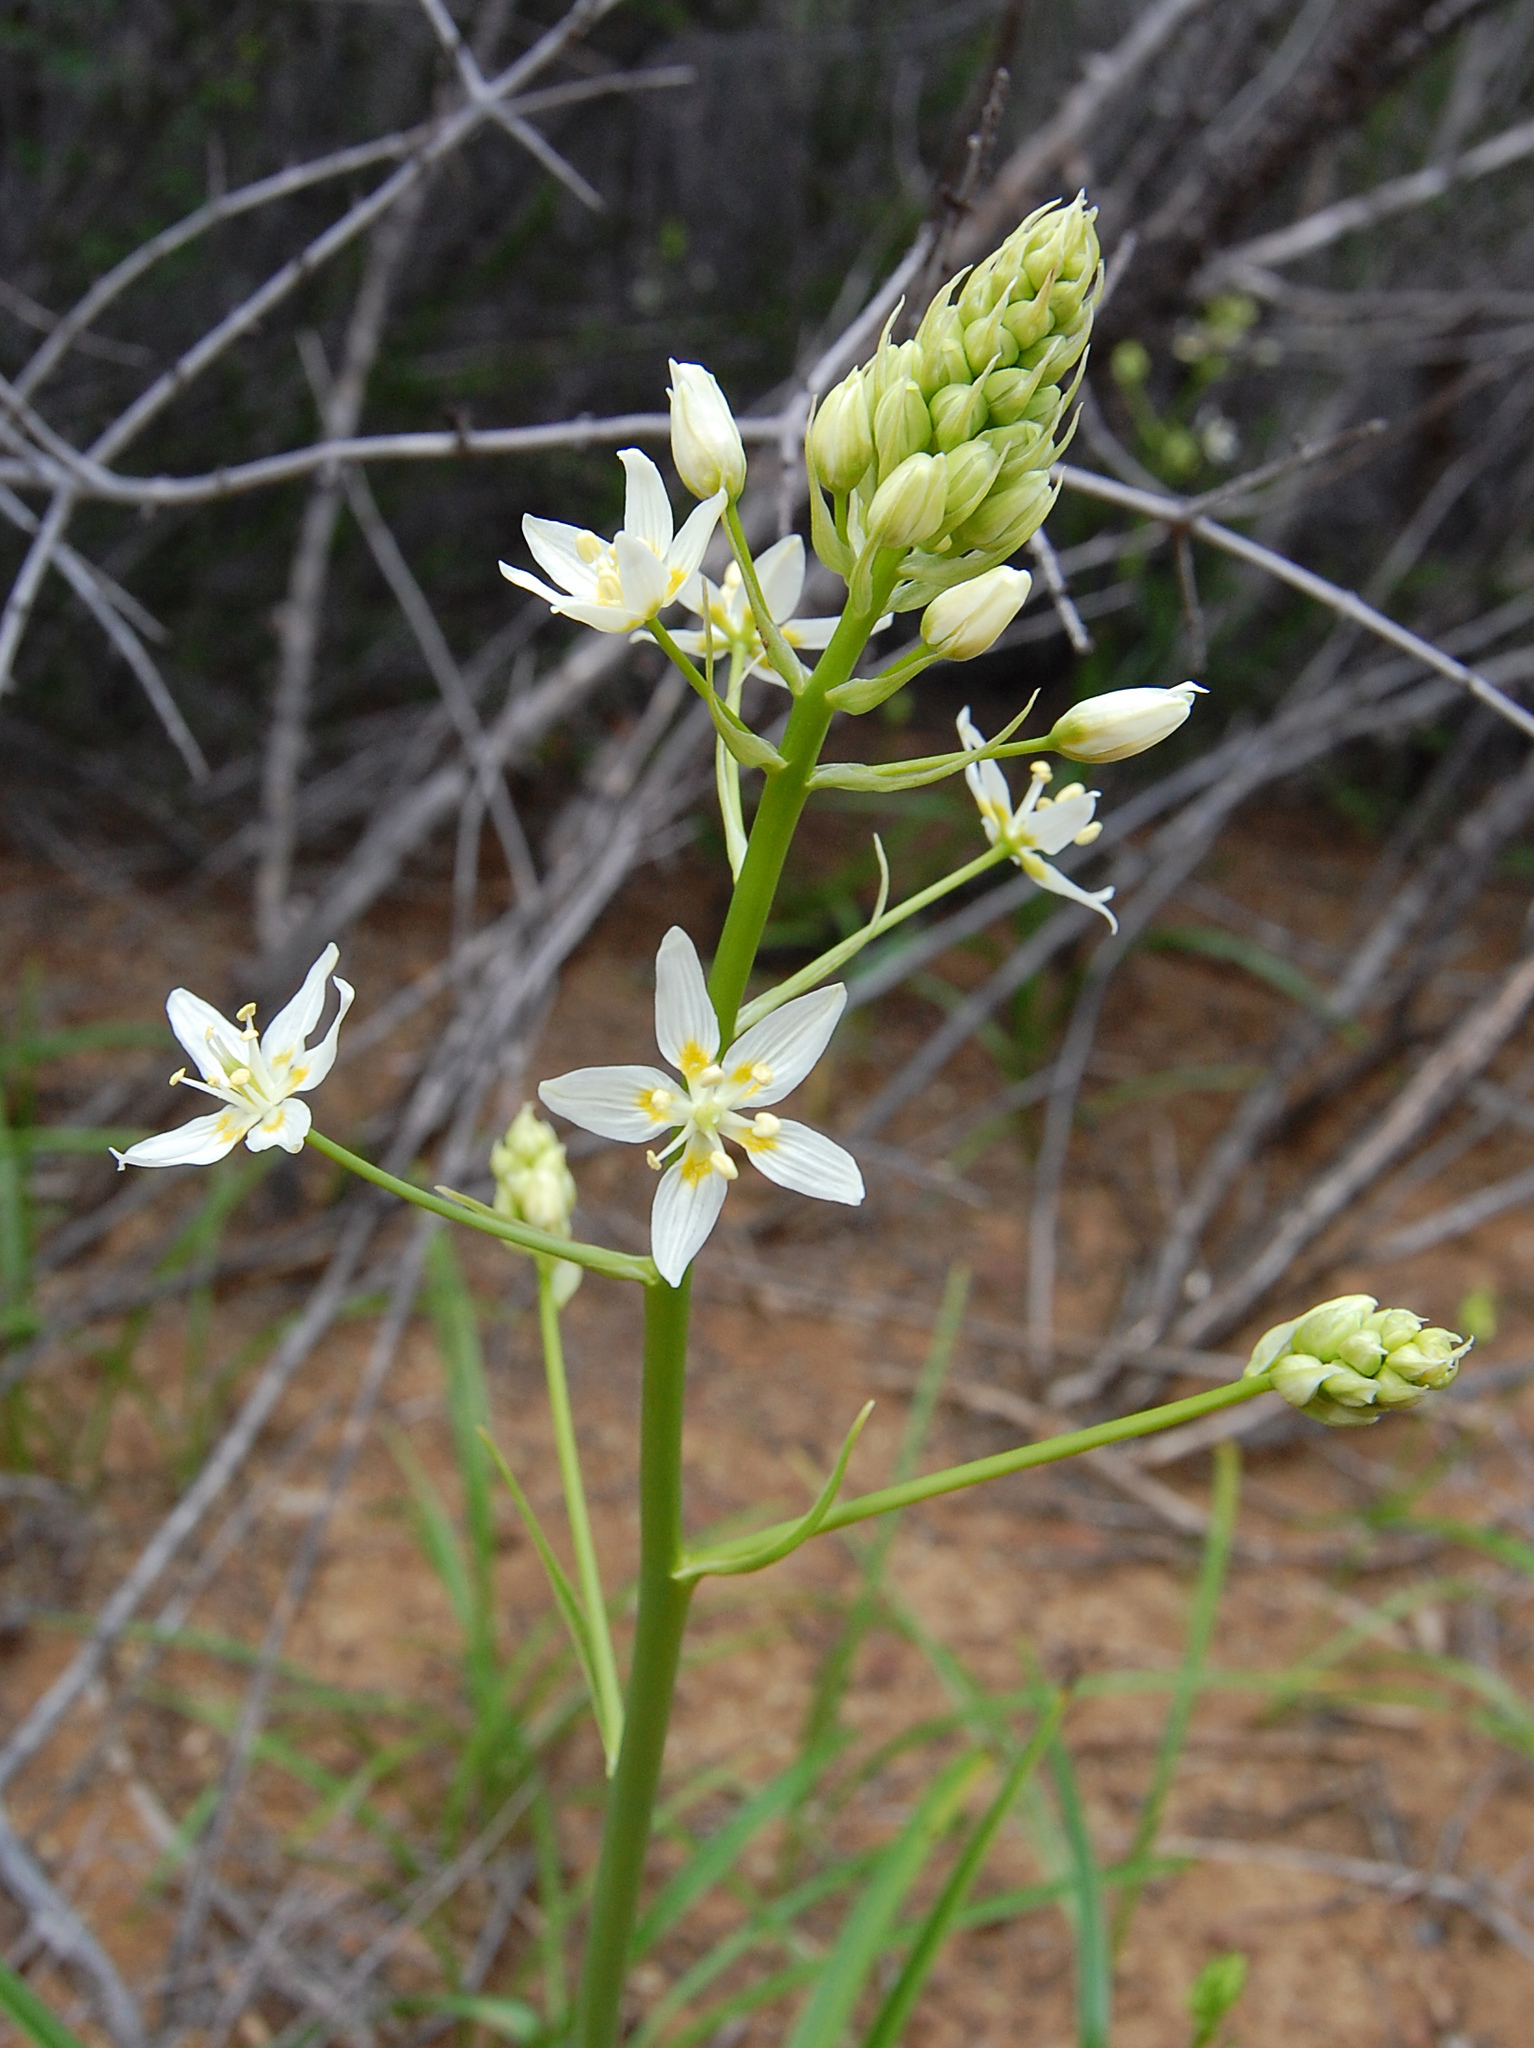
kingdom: Plantae
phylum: Tracheophyta
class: Liliopsida
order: Liliales
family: Melanthiaceae
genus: Toxicoscordion
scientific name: Toxicoscordion fremontii
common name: Fremont's death camas
